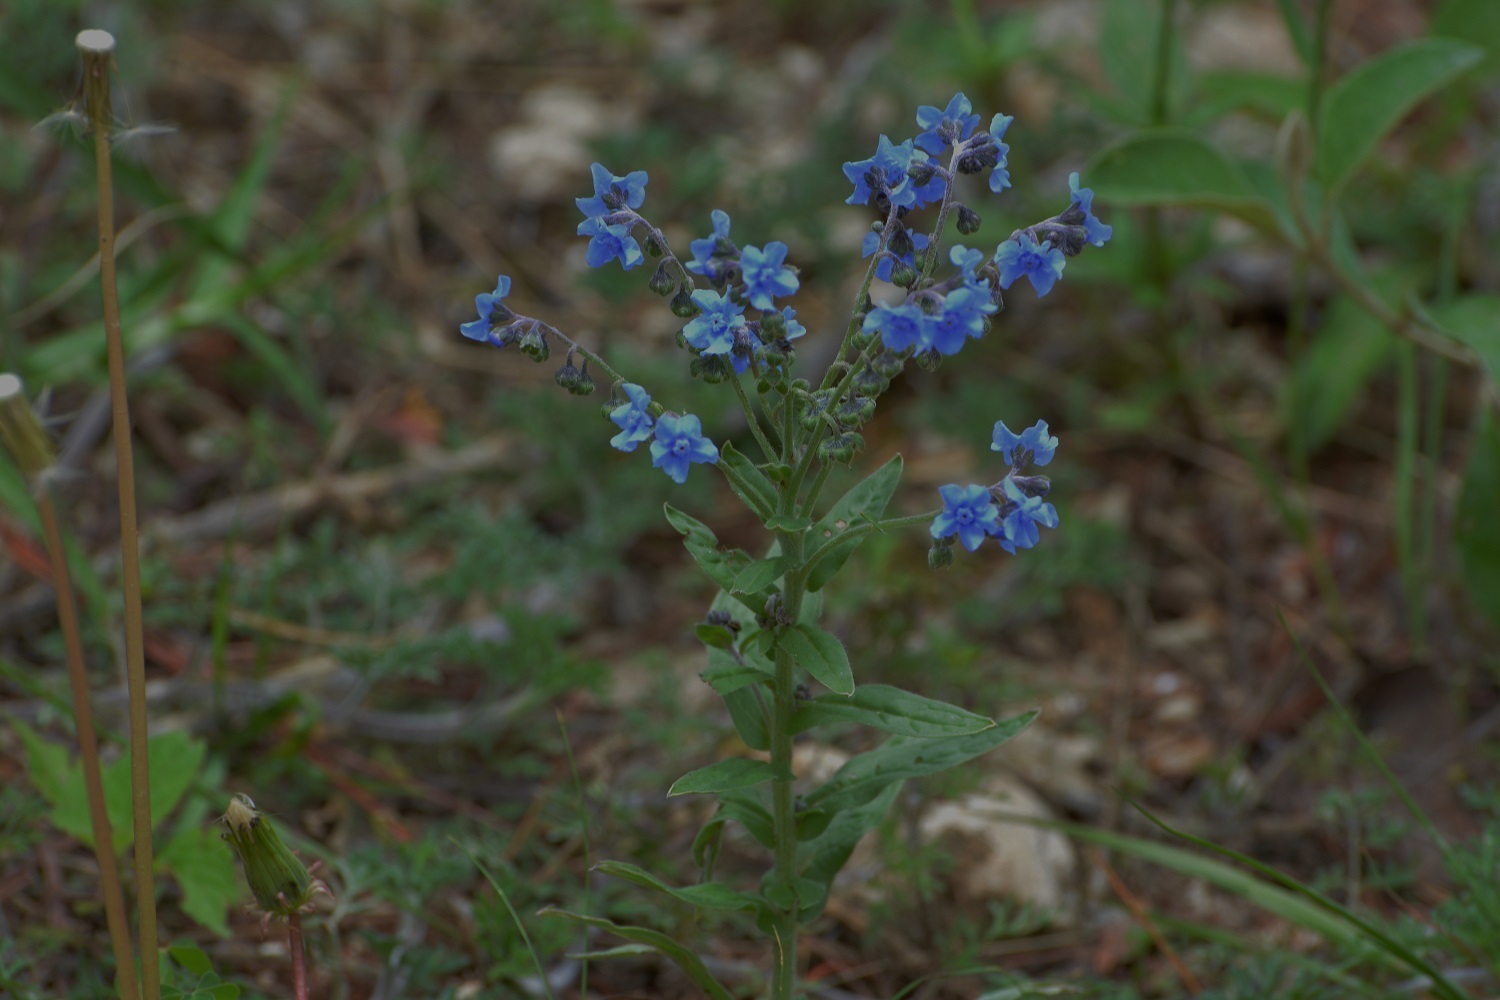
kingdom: Plantae
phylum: Tracheophyta
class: Magnoliopsida
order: Boraginales
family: Boraginaceae
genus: Cynoglossum
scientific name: Cynoglossum amabile
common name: Chinese hound's tongue
